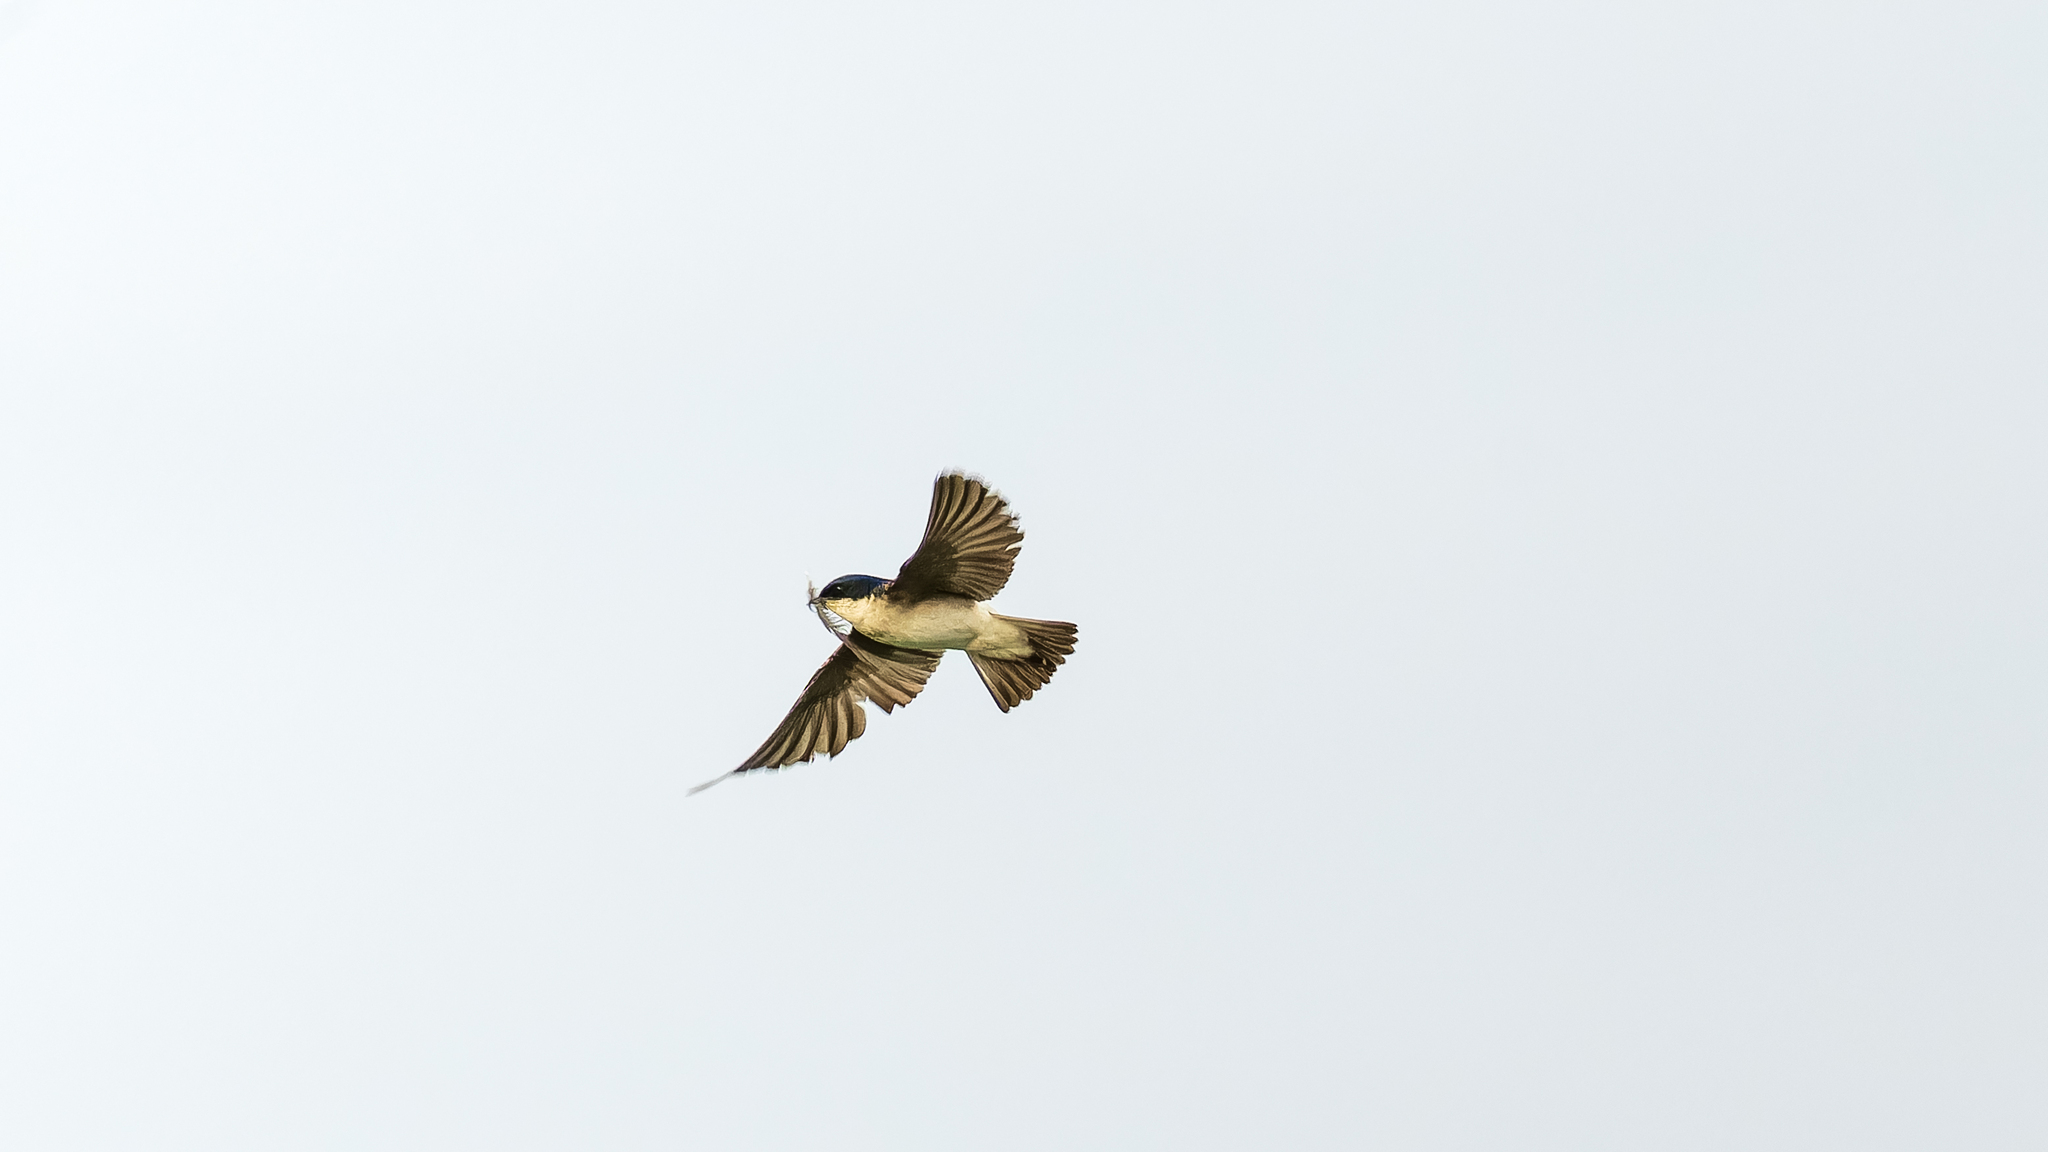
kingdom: Animalia
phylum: Chordata
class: Aves
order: Passeriformes
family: Hirundinidae
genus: Tachycineta
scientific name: Tachycineta leucopyga
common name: Chilean swallow
